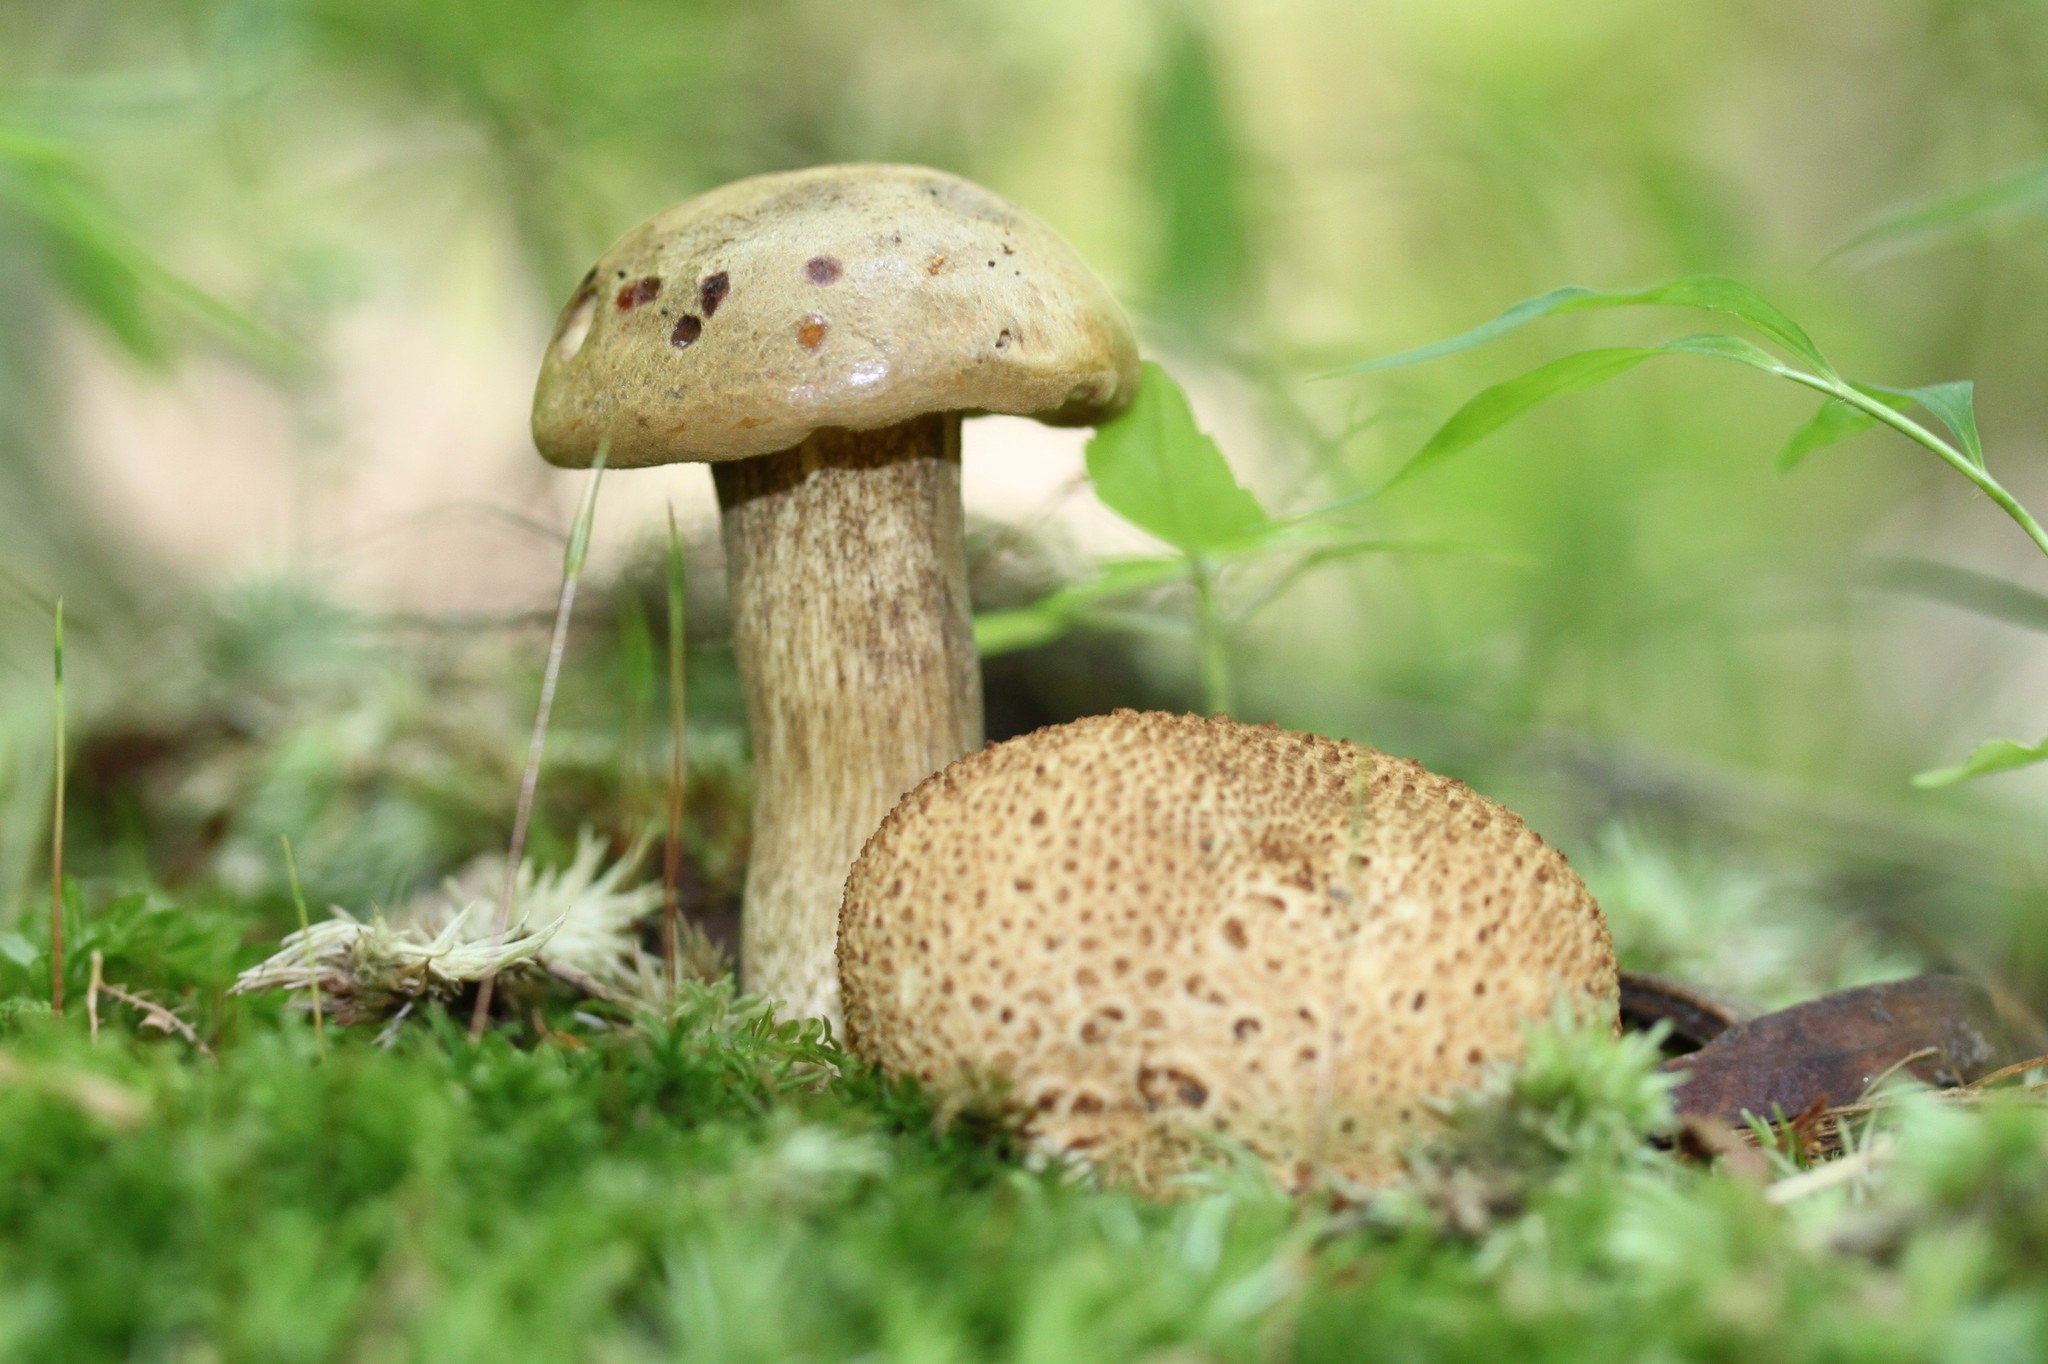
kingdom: Fungi
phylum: Basidiomycota
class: Agaricomycetes
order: Boletales
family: Boletaceae
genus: Pseudoboletus
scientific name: Pseudoboletus parasiticus
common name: Parasitic bolete
